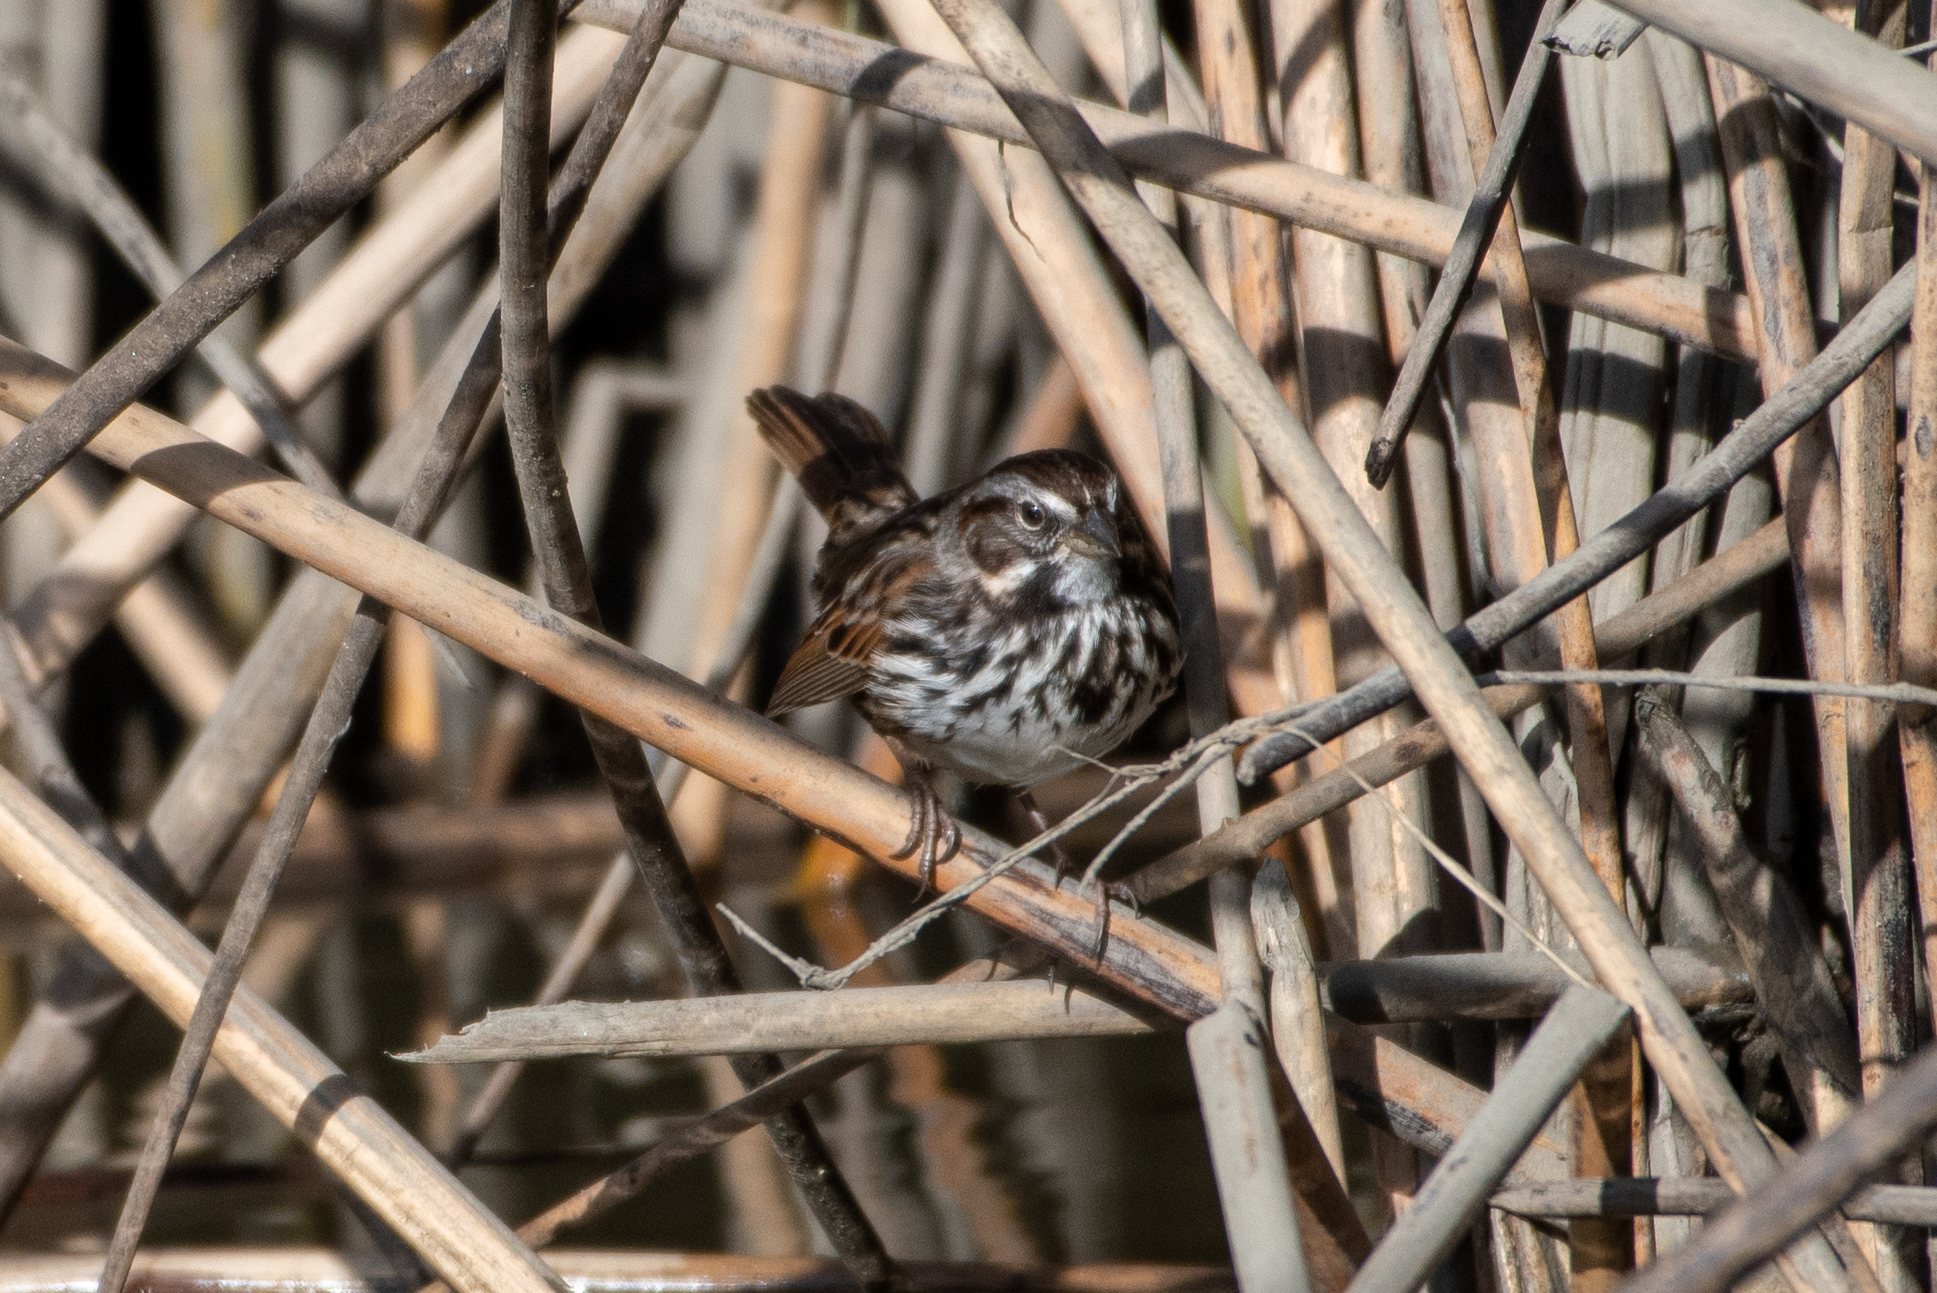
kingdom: Animalia
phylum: Chordata
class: Aves
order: Passeriformes
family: Passerellidae
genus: Melospiza
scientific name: Melospiza melodia
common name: Song sparrow
